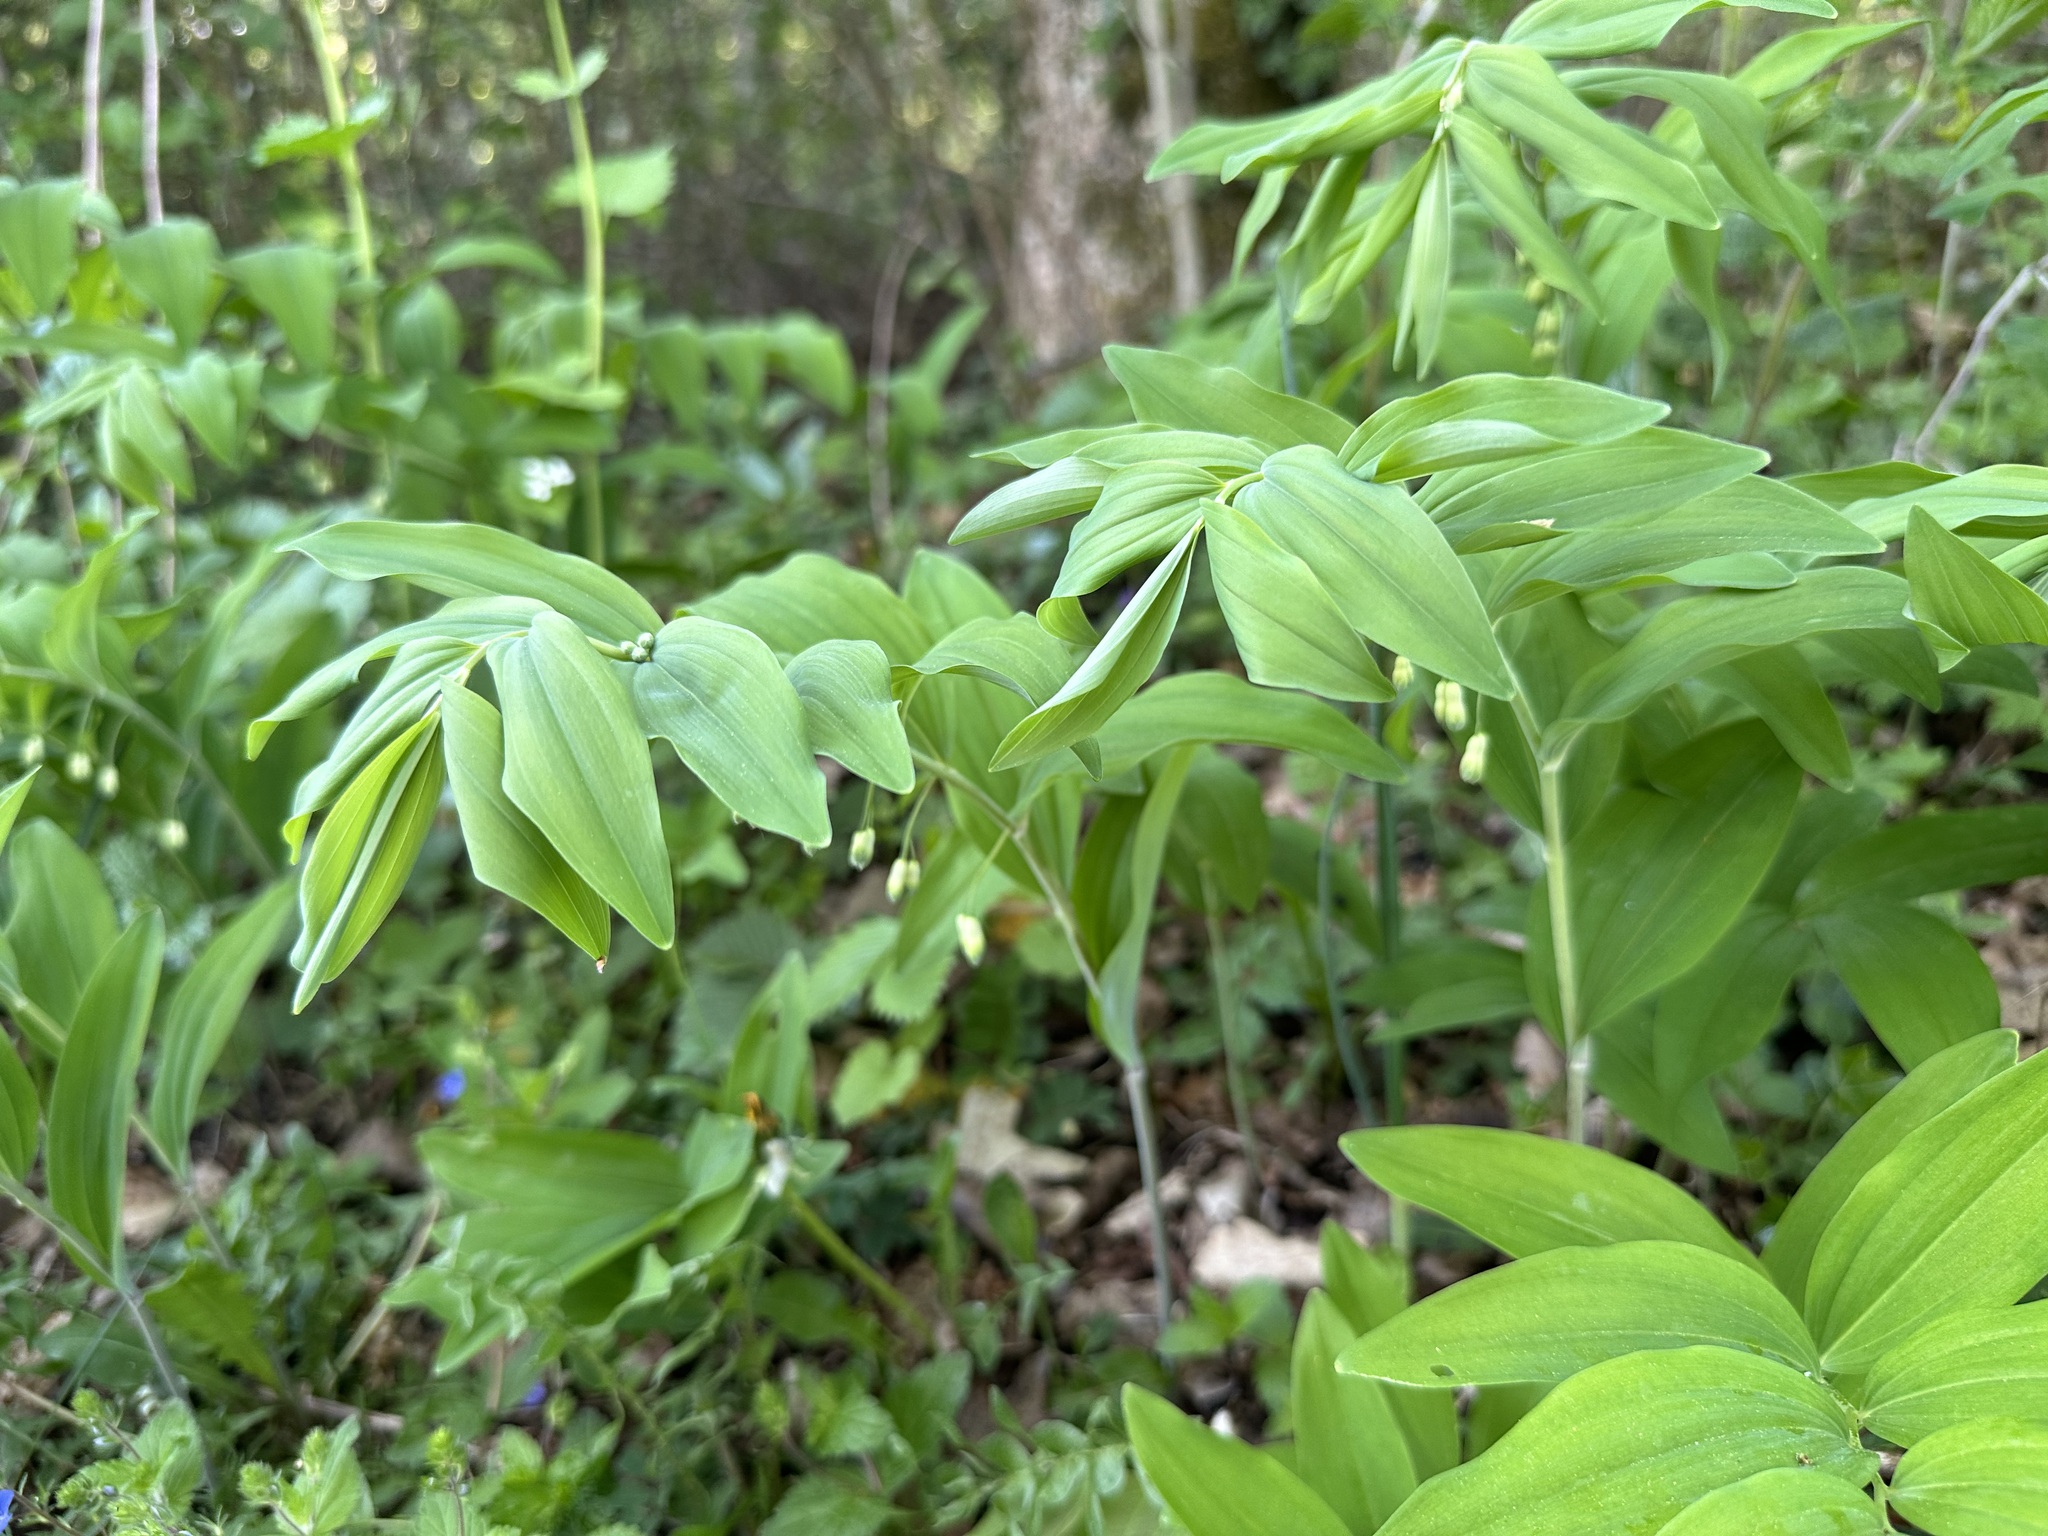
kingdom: Plantae
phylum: Tracheophyta
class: Liliopsida
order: Asparagales
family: Asparagaceae
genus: Polygonatum
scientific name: Polygonatum multiflorum
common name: Solomon's-seal
